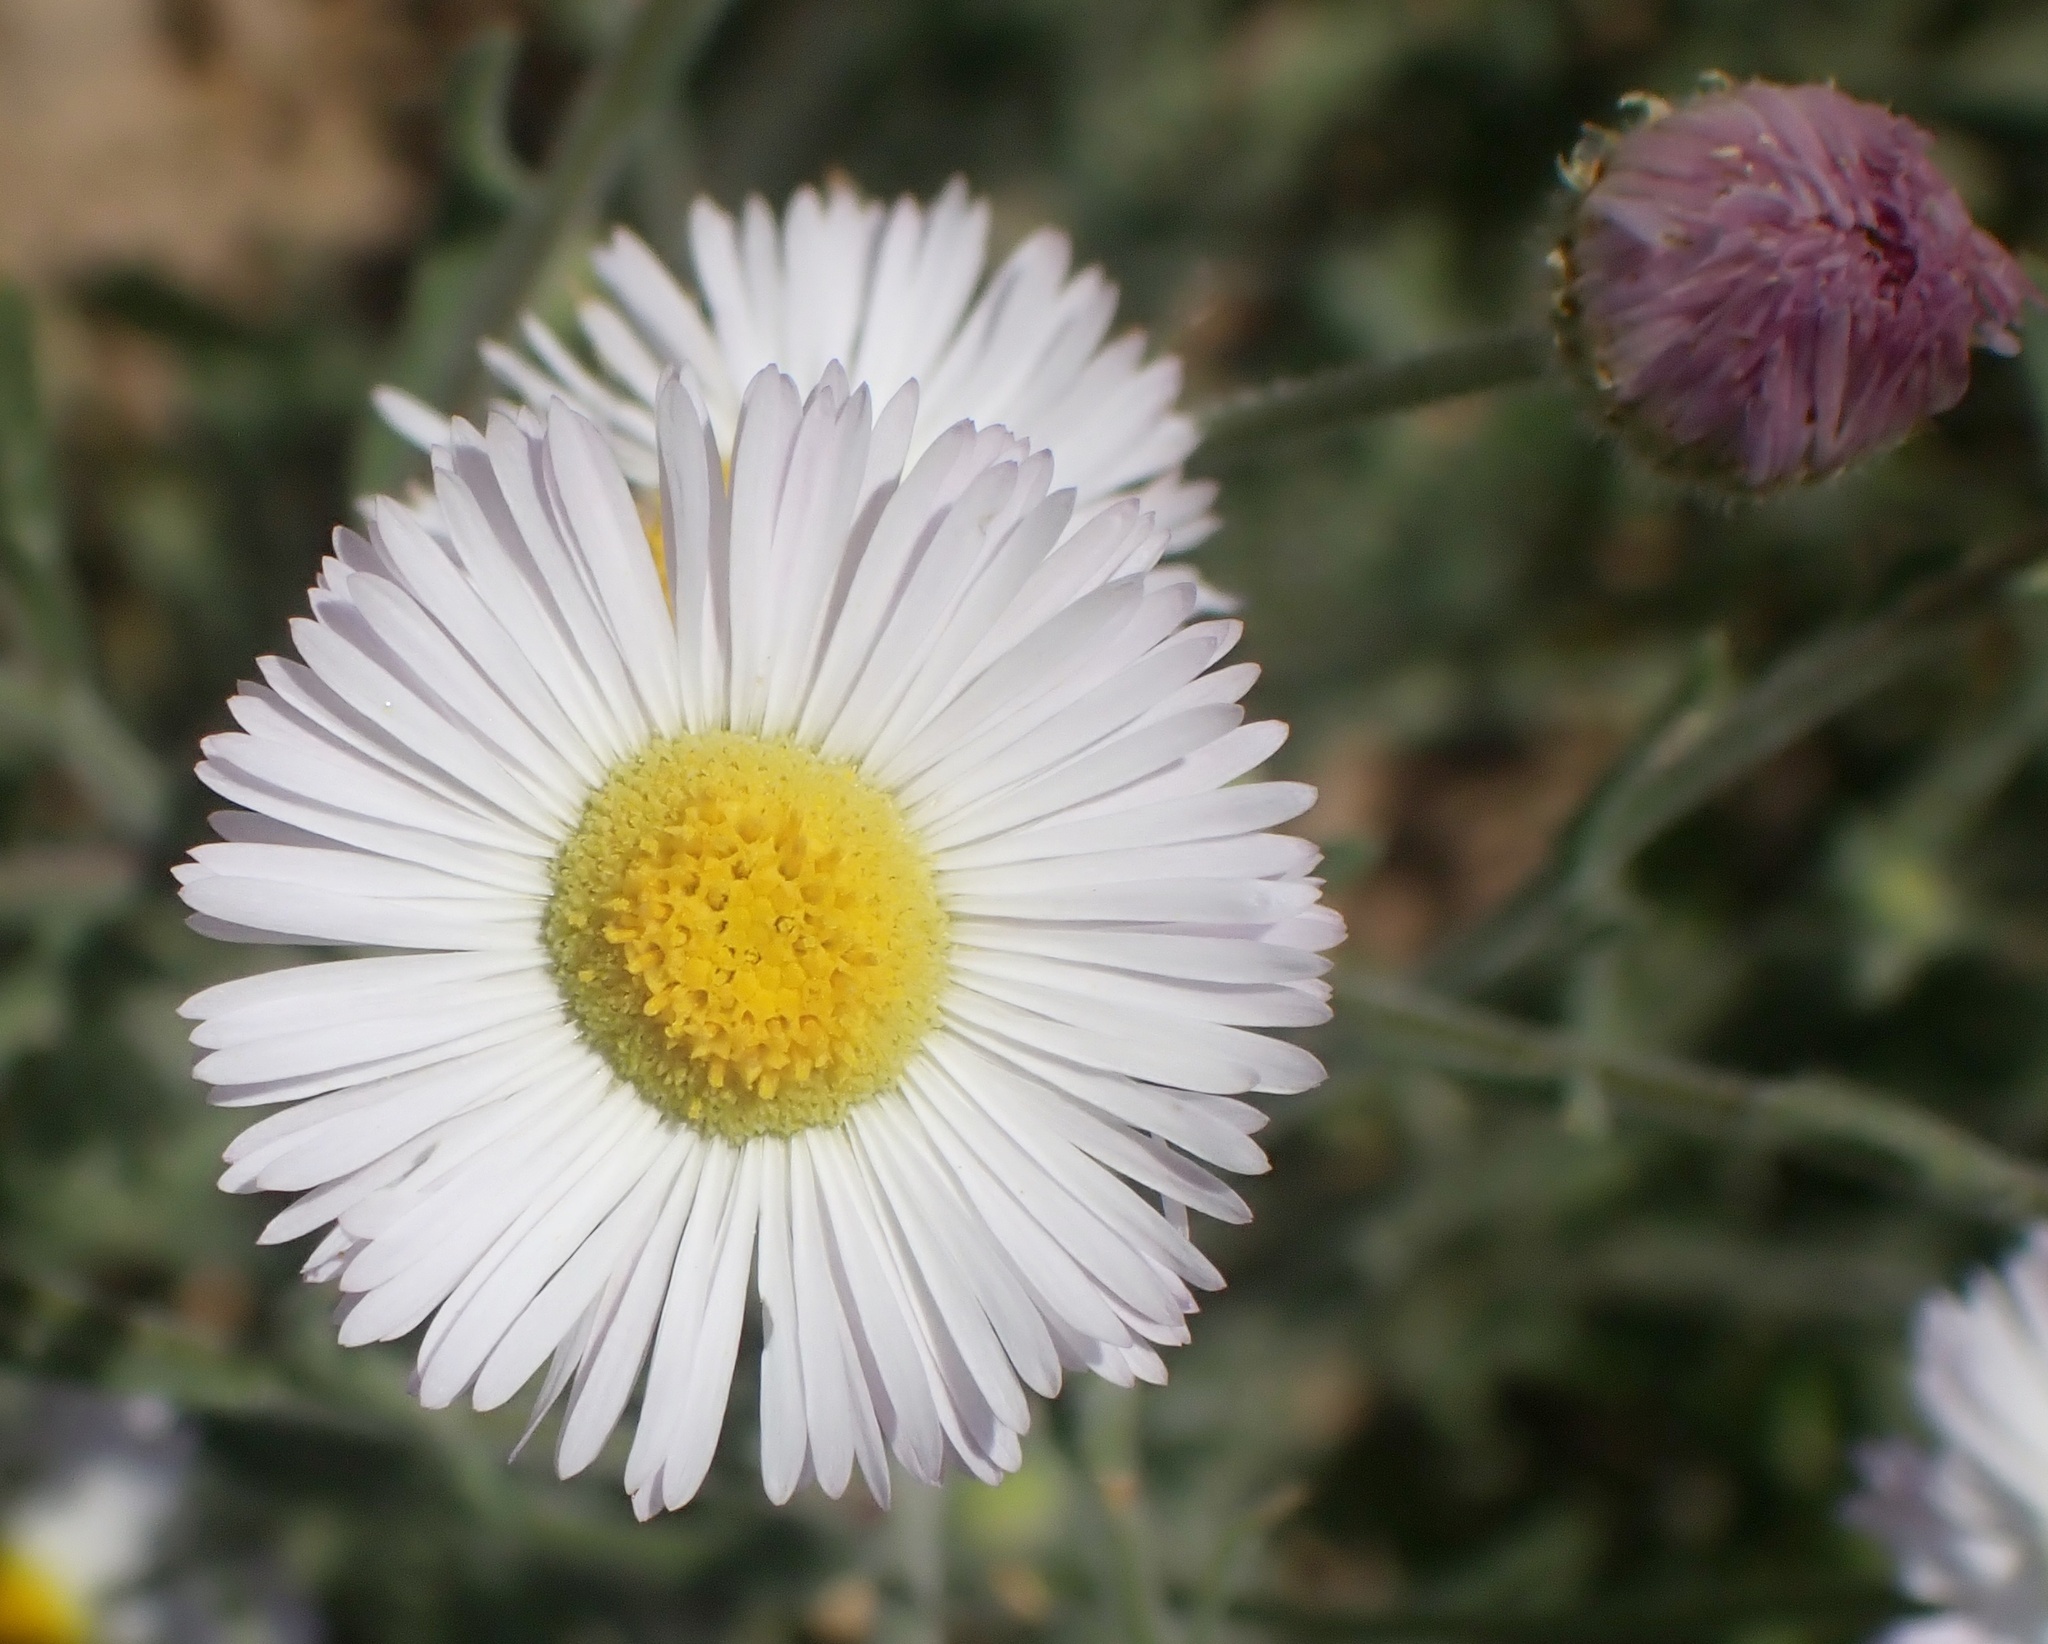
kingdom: Plantae
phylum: Tracheophyta
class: Magnoliopsida
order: Asterales
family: Asteraceae
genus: Erigeron
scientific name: Erigeron divergens
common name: Diffuse fleabane
